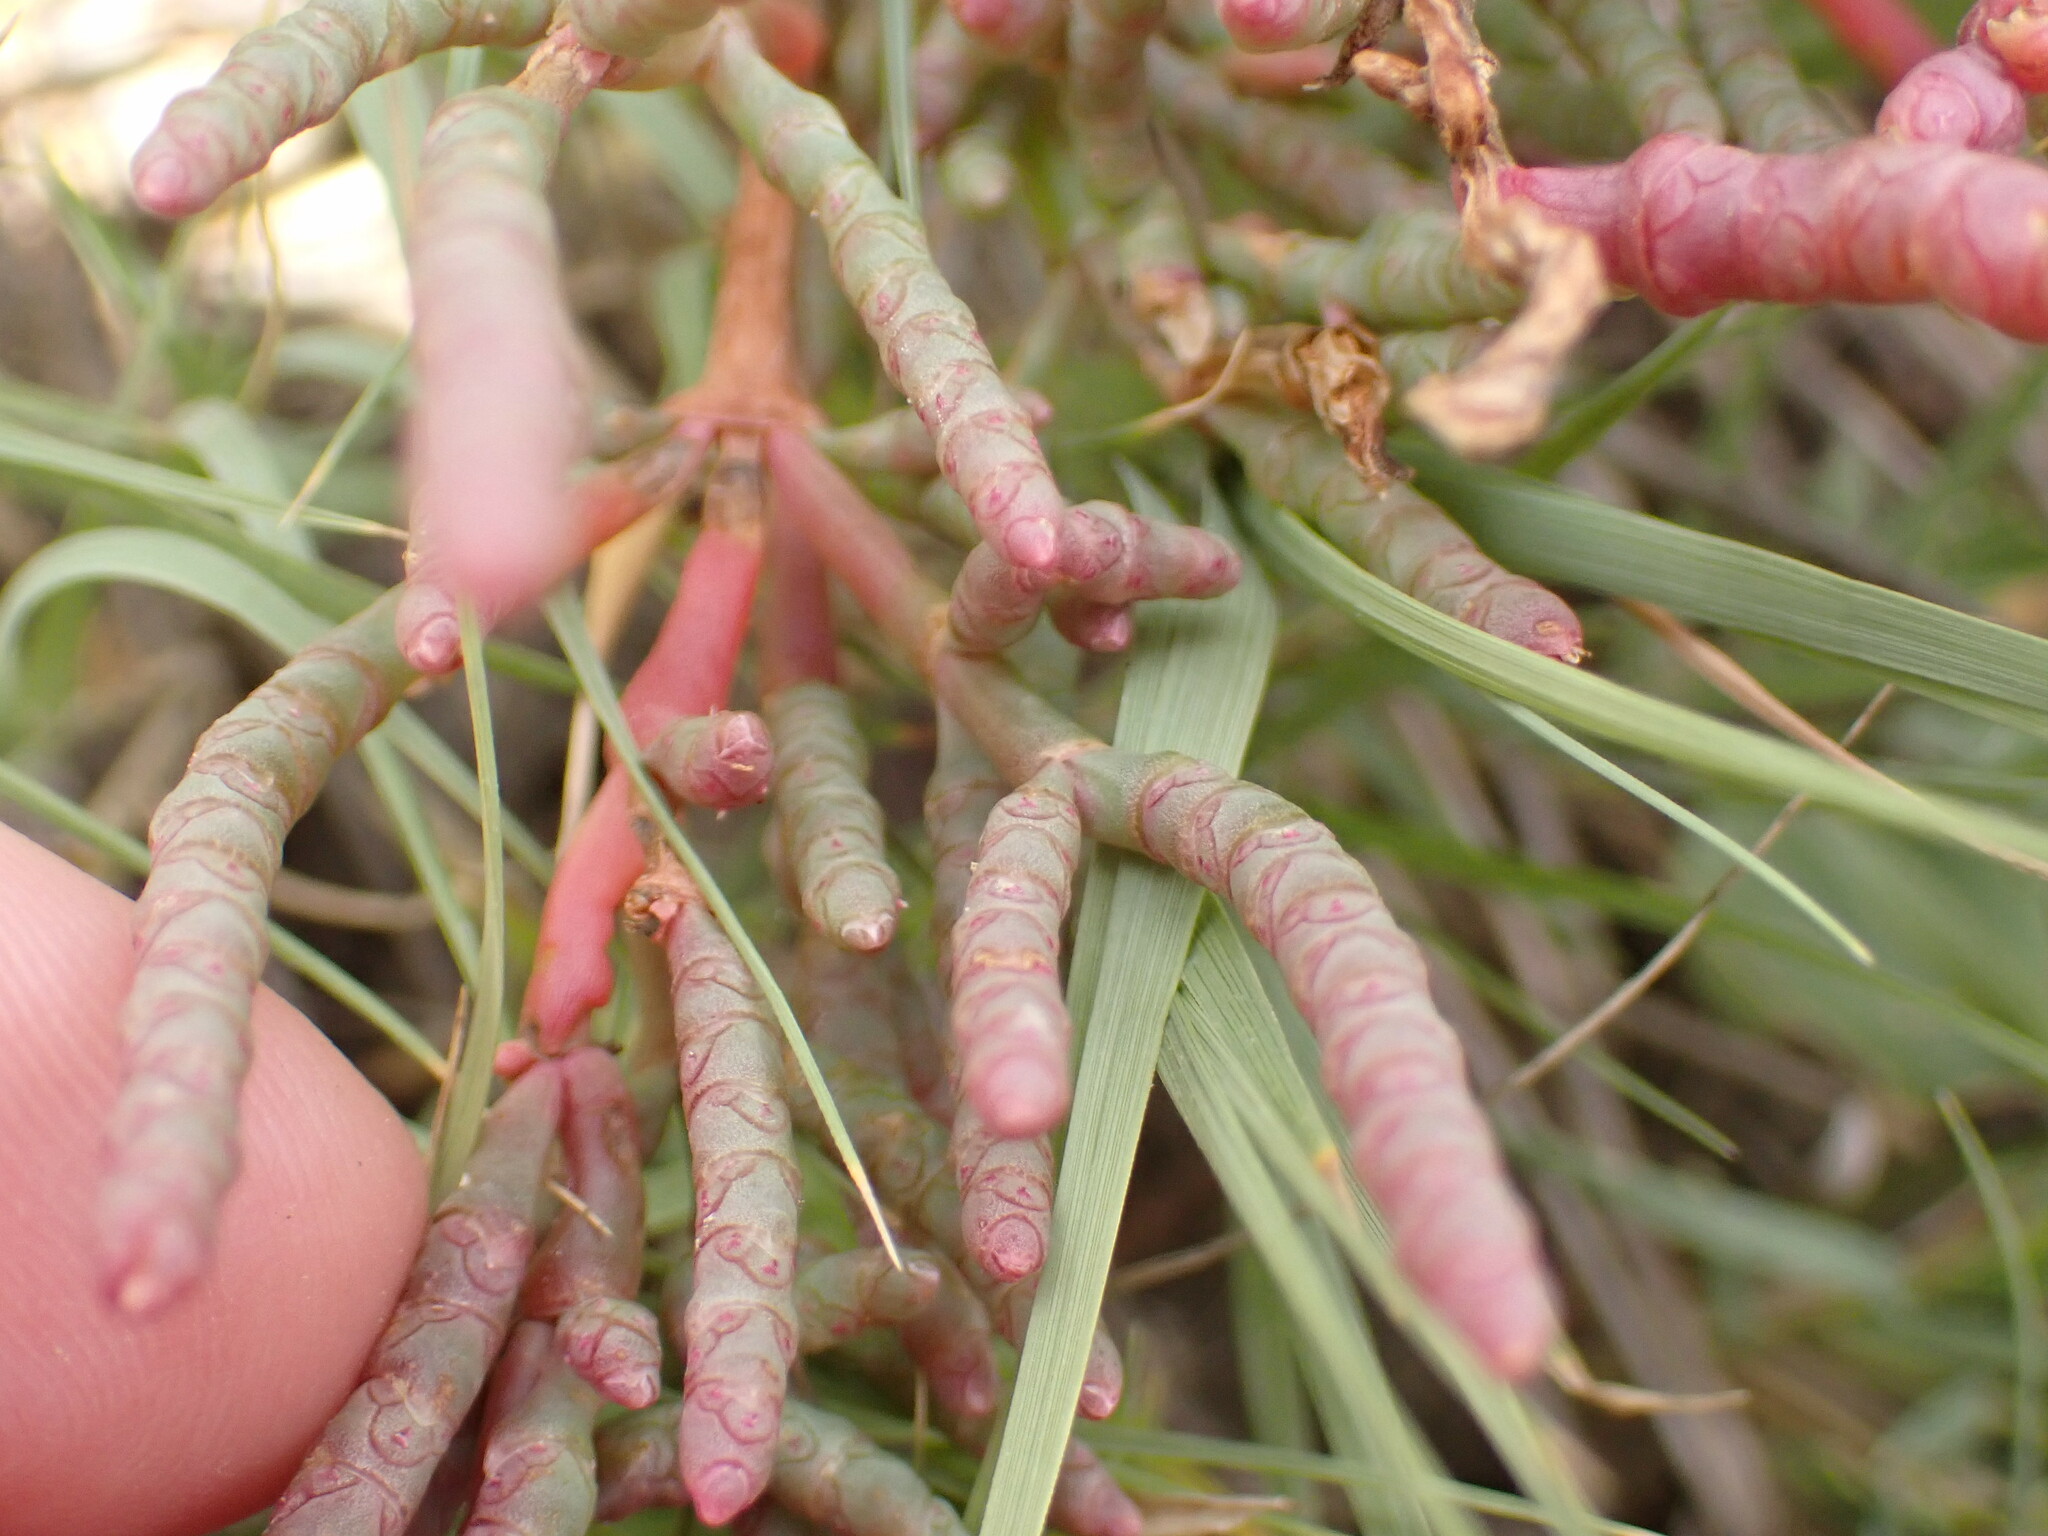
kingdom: Plantae
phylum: Tracheophyta
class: Magnoliopsida
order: Caryophyllales
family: Amaranthaceae
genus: Salicornia
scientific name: Salicornia rubra
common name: Red glasswort
